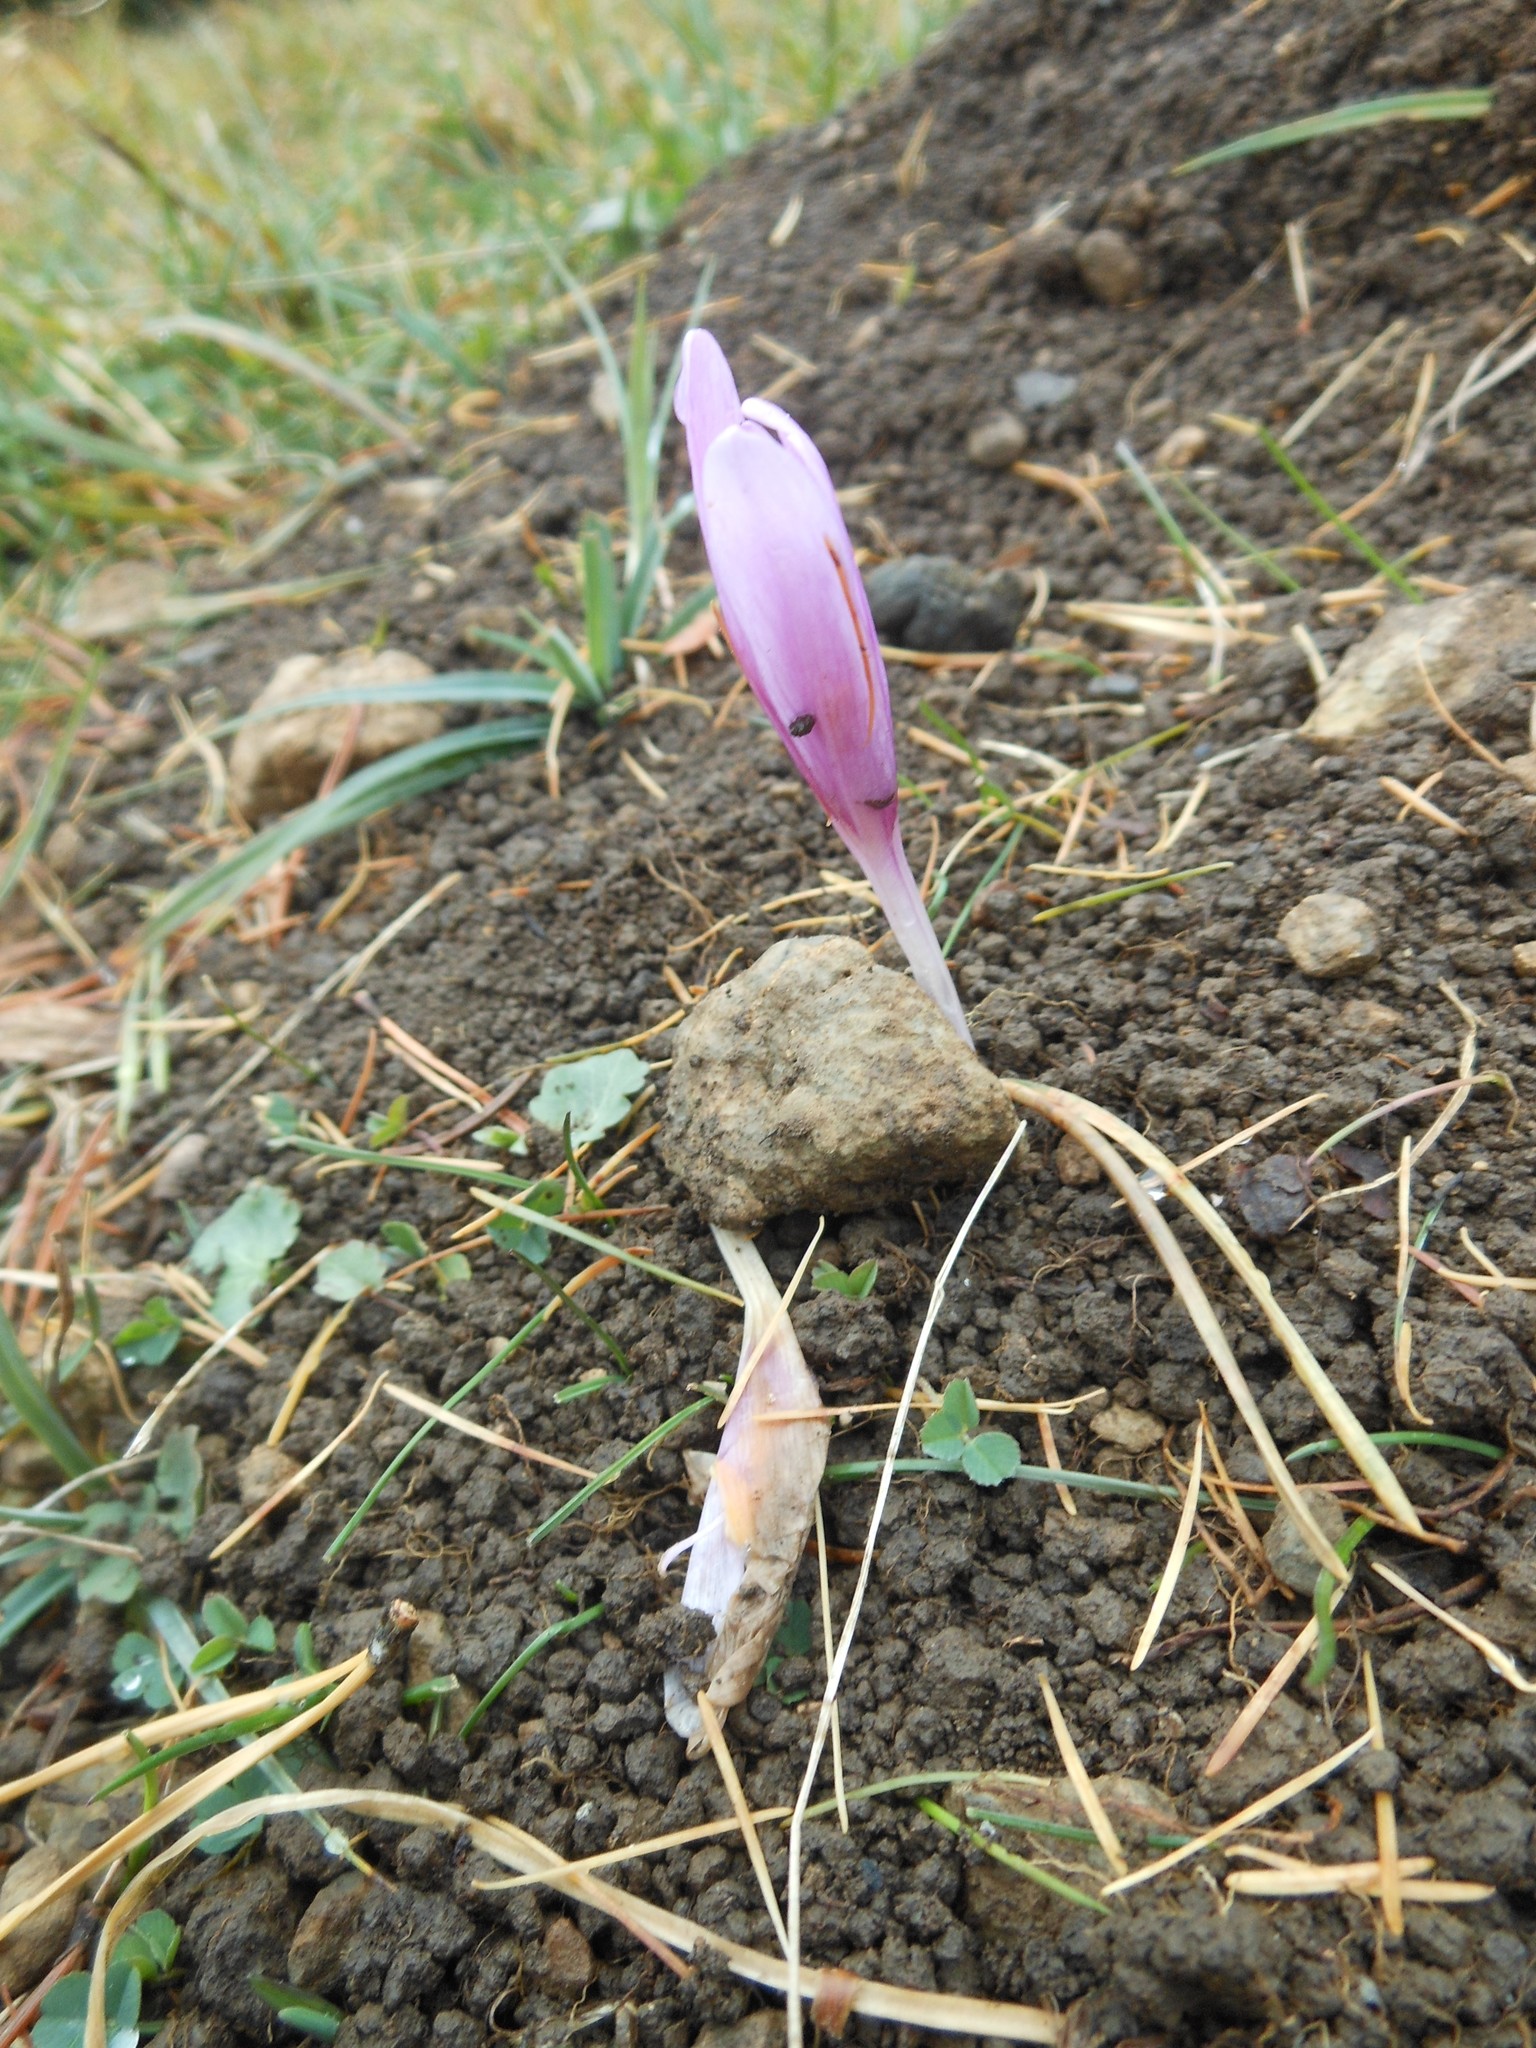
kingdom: Plantae
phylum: Tracheophyta
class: Liliopsida
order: Liliales
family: Colchicaceae
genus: Colchicum
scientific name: Colchicum autumnale
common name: Autumn crocus
